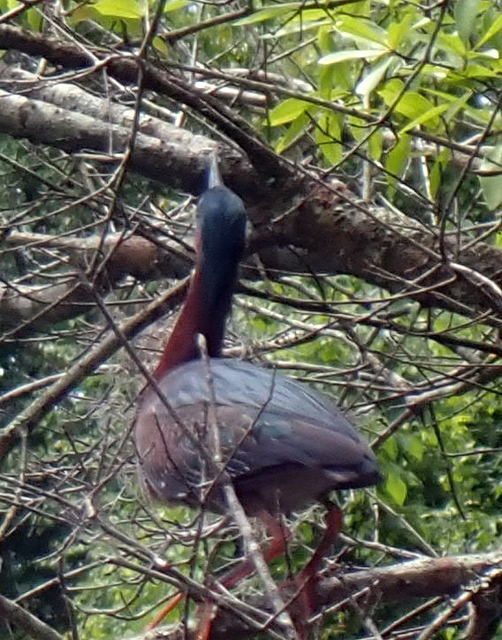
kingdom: Animalia
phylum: Chordata
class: Aves
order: Pelecaniformes
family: Ardeidae
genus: Butorides
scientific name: Butorides virescens
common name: Green heron
